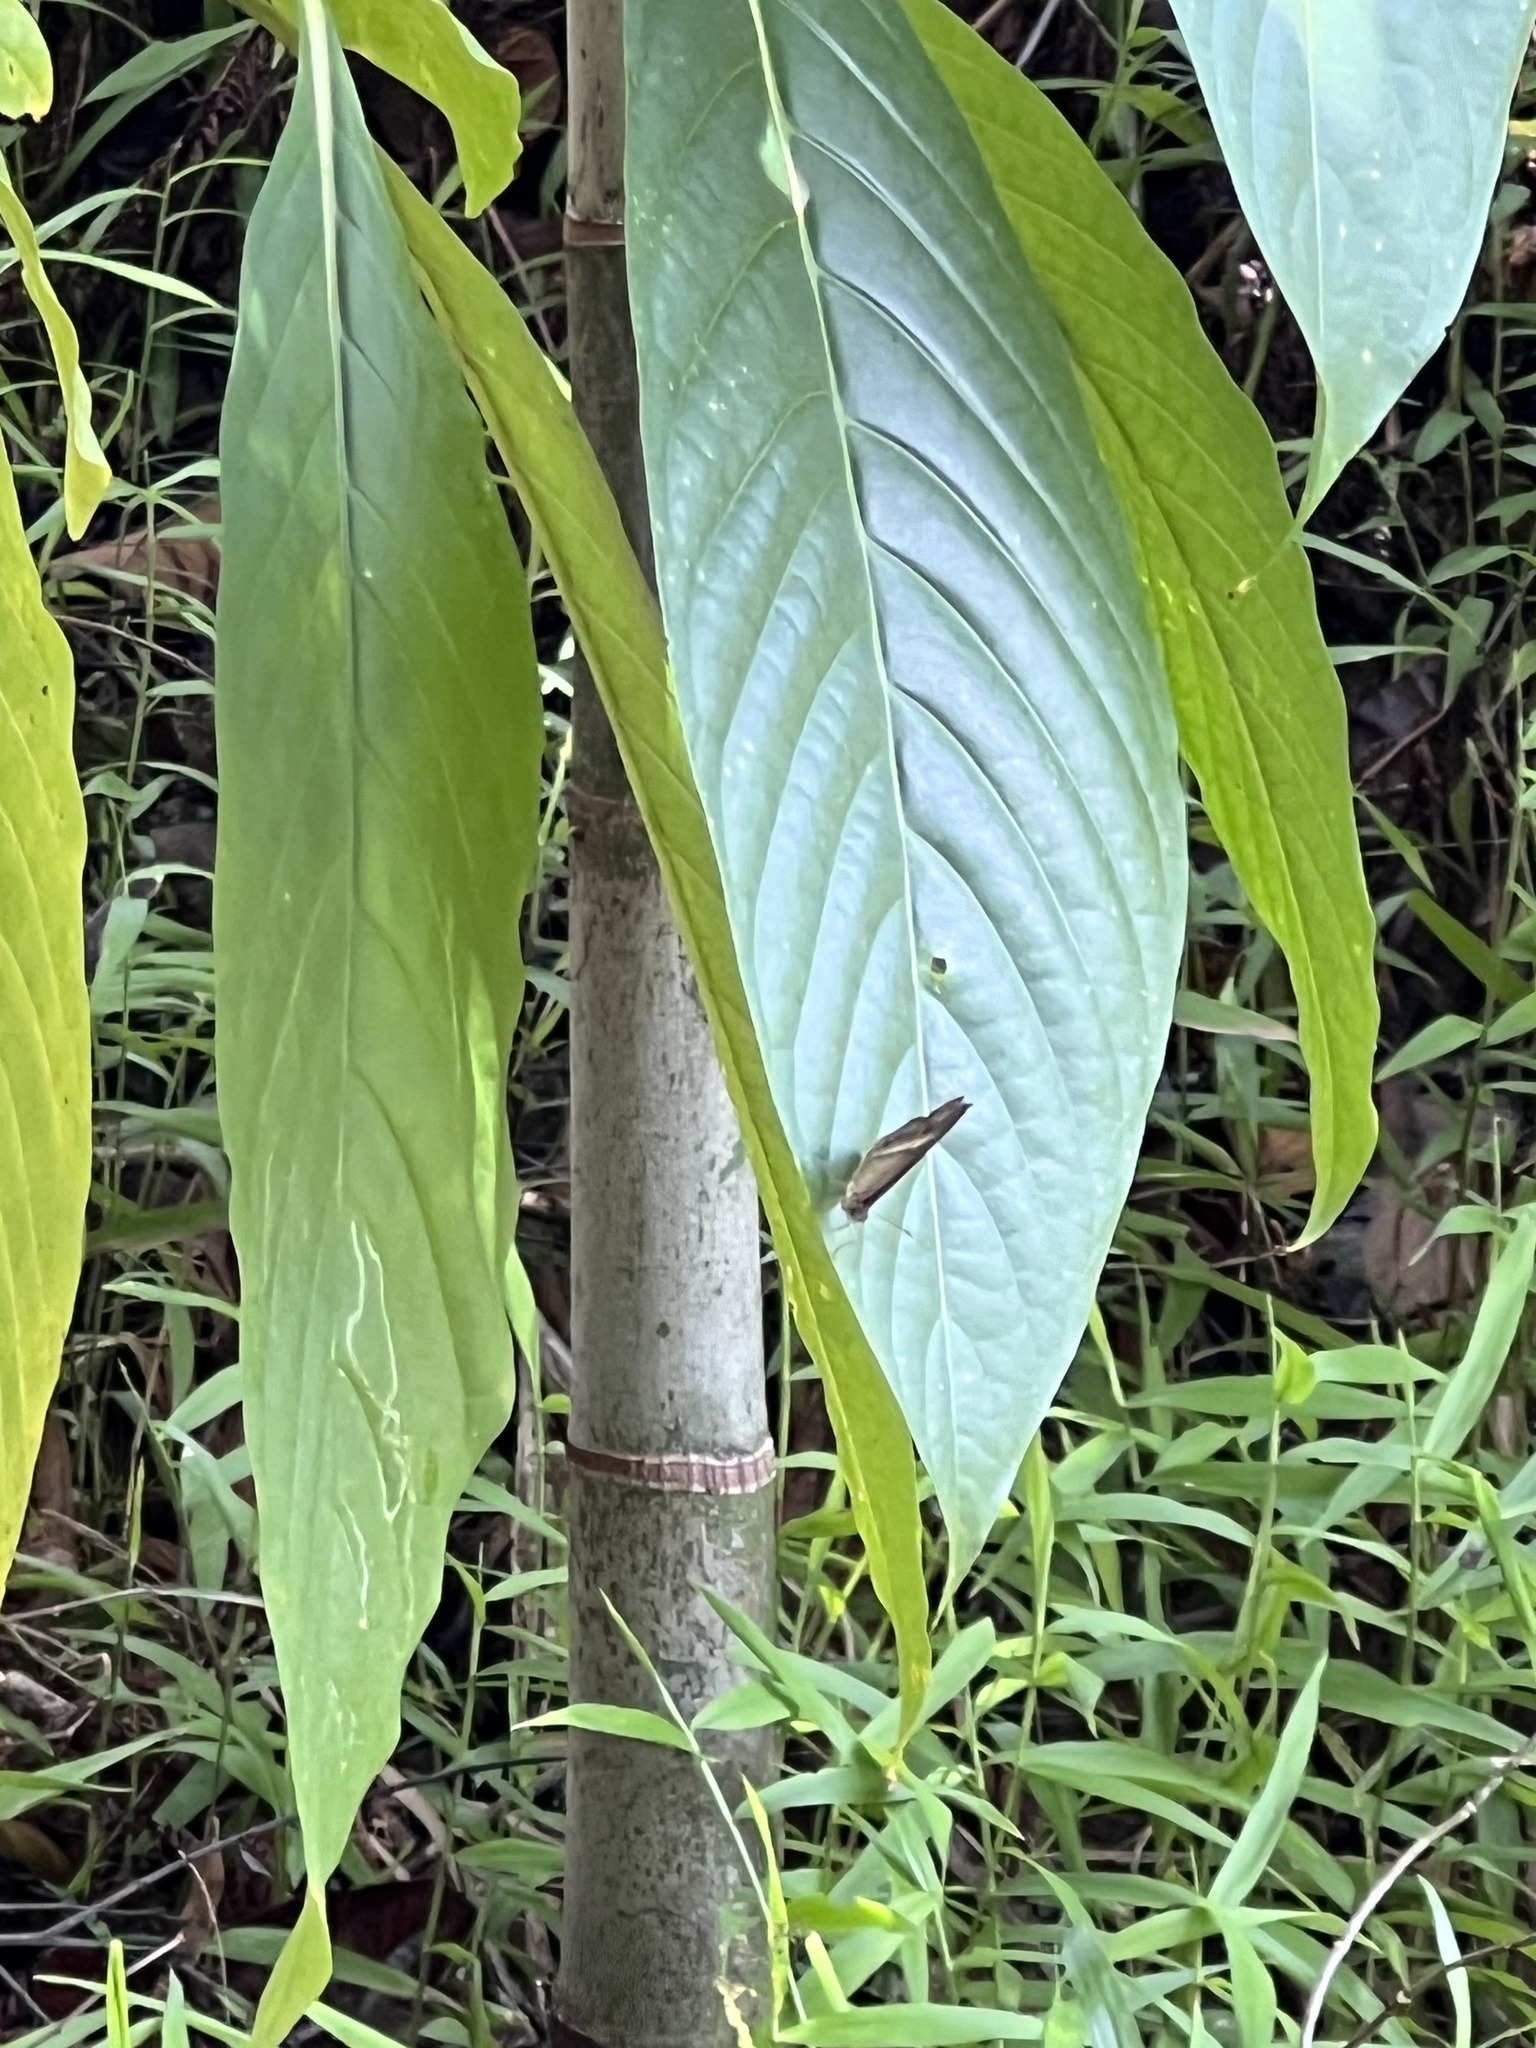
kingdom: Animalia
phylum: Arthropoda
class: Insecta
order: Lepidoptera
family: Nymphalidae
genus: Mycalesis
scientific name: Mycalesis terminus
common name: Orange bushbrown
